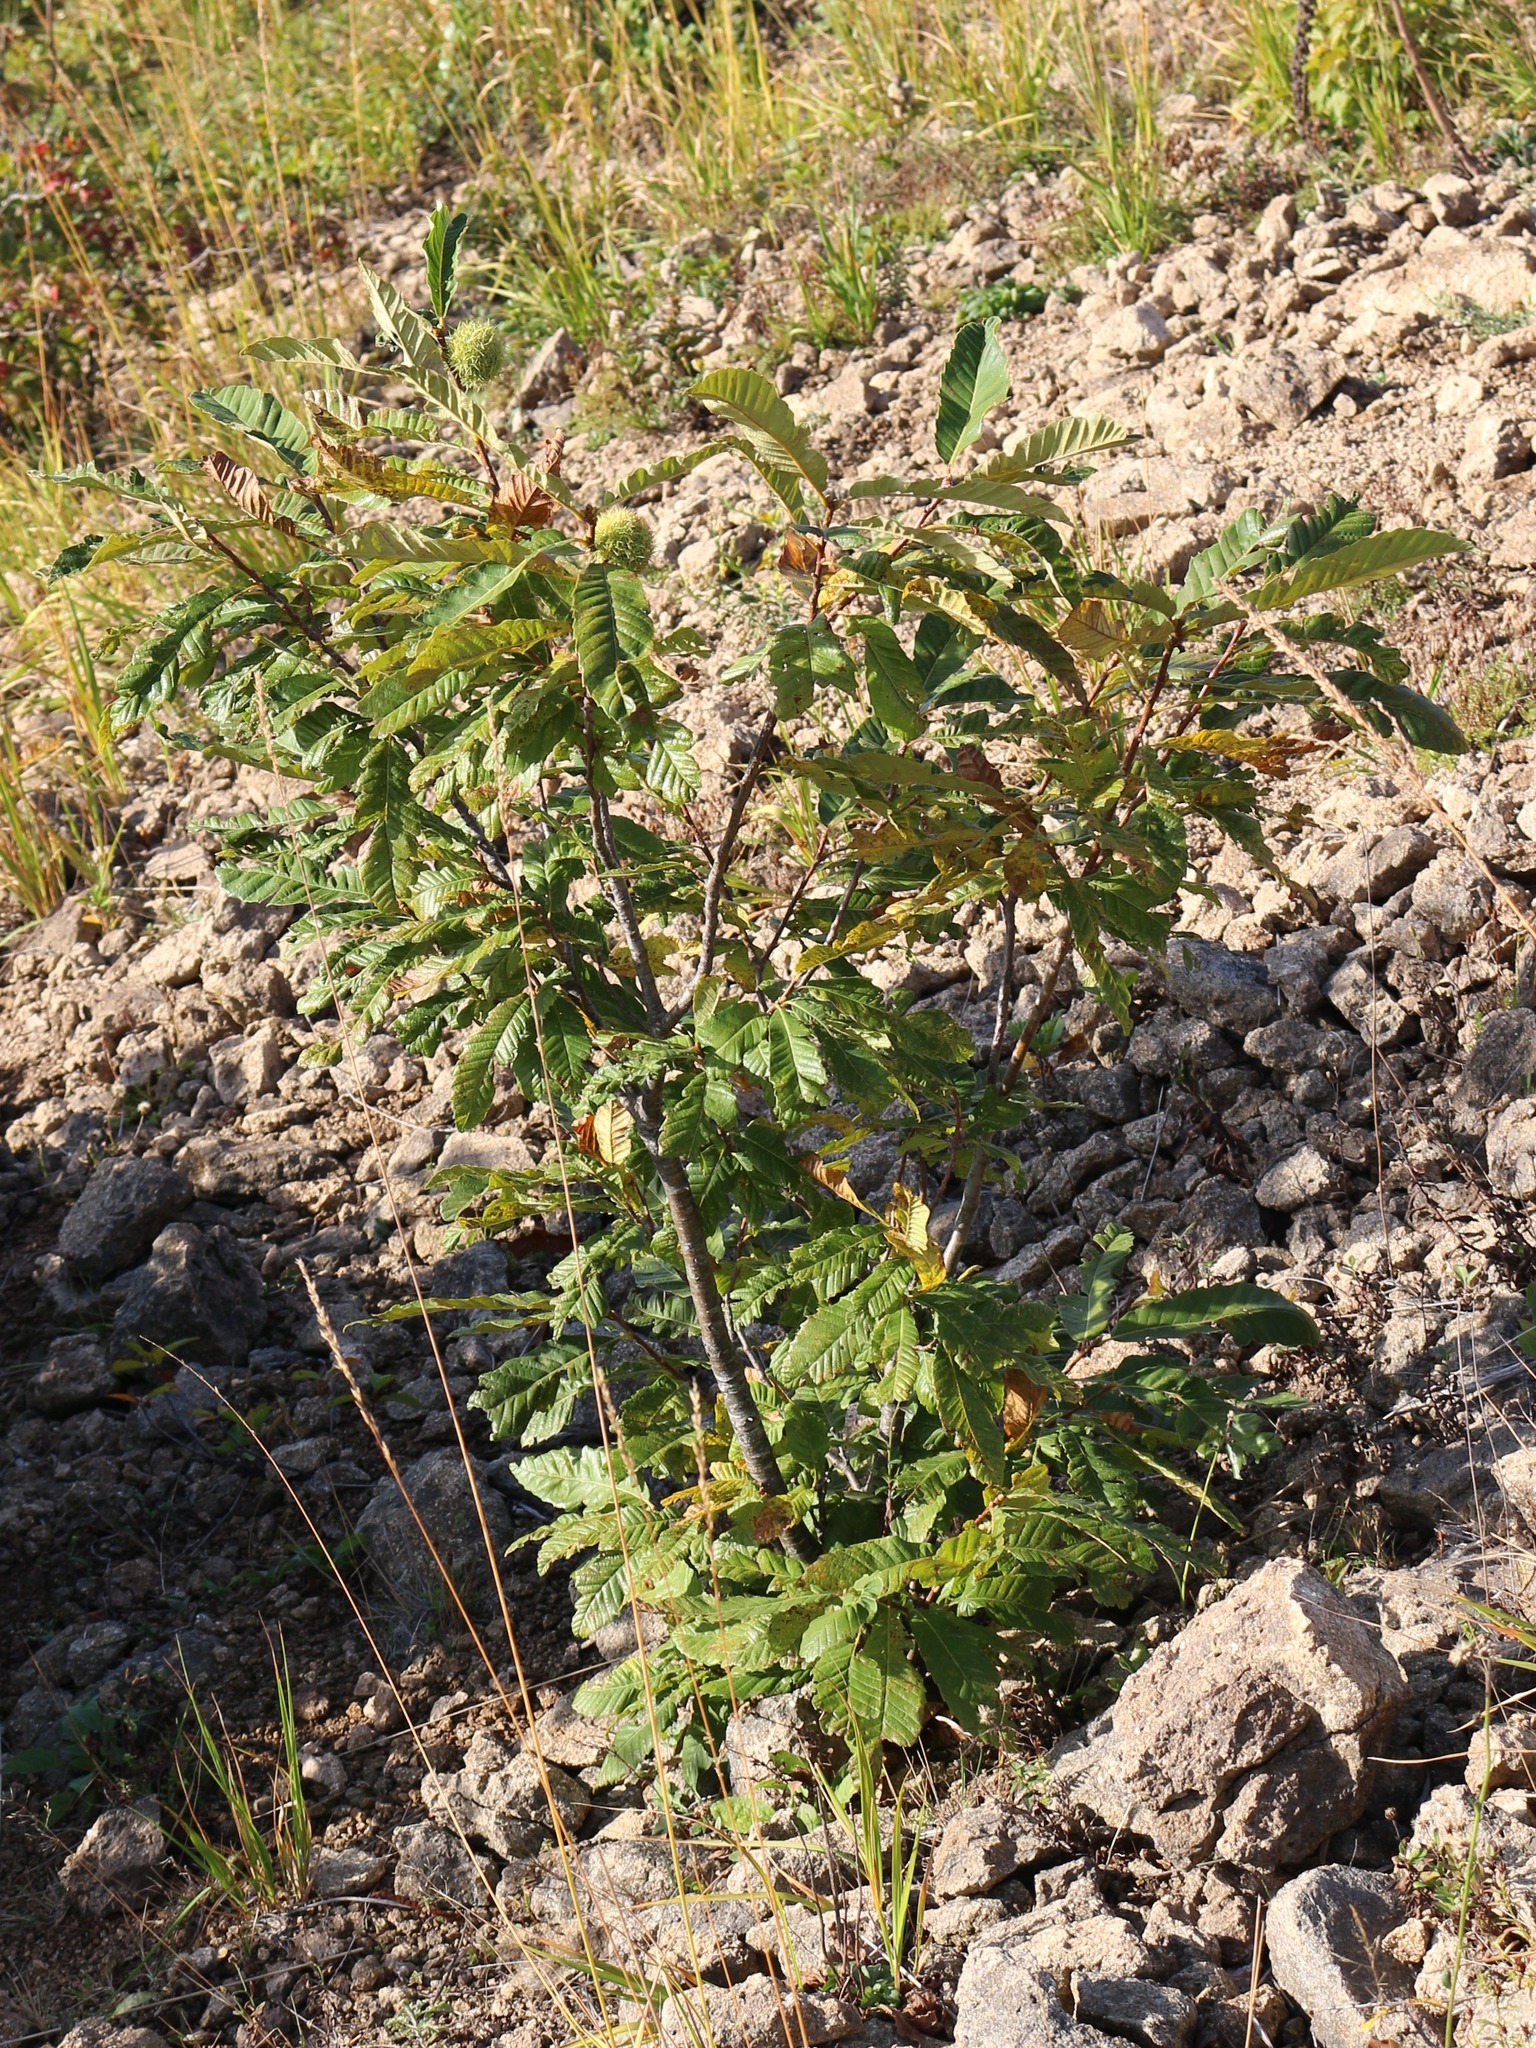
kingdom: Plantae
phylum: Tracheophyta
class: Magnoliopsida
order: Fagales
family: Fagaceae
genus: Castanea
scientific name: Castanea sativa
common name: Sweet chestnut
